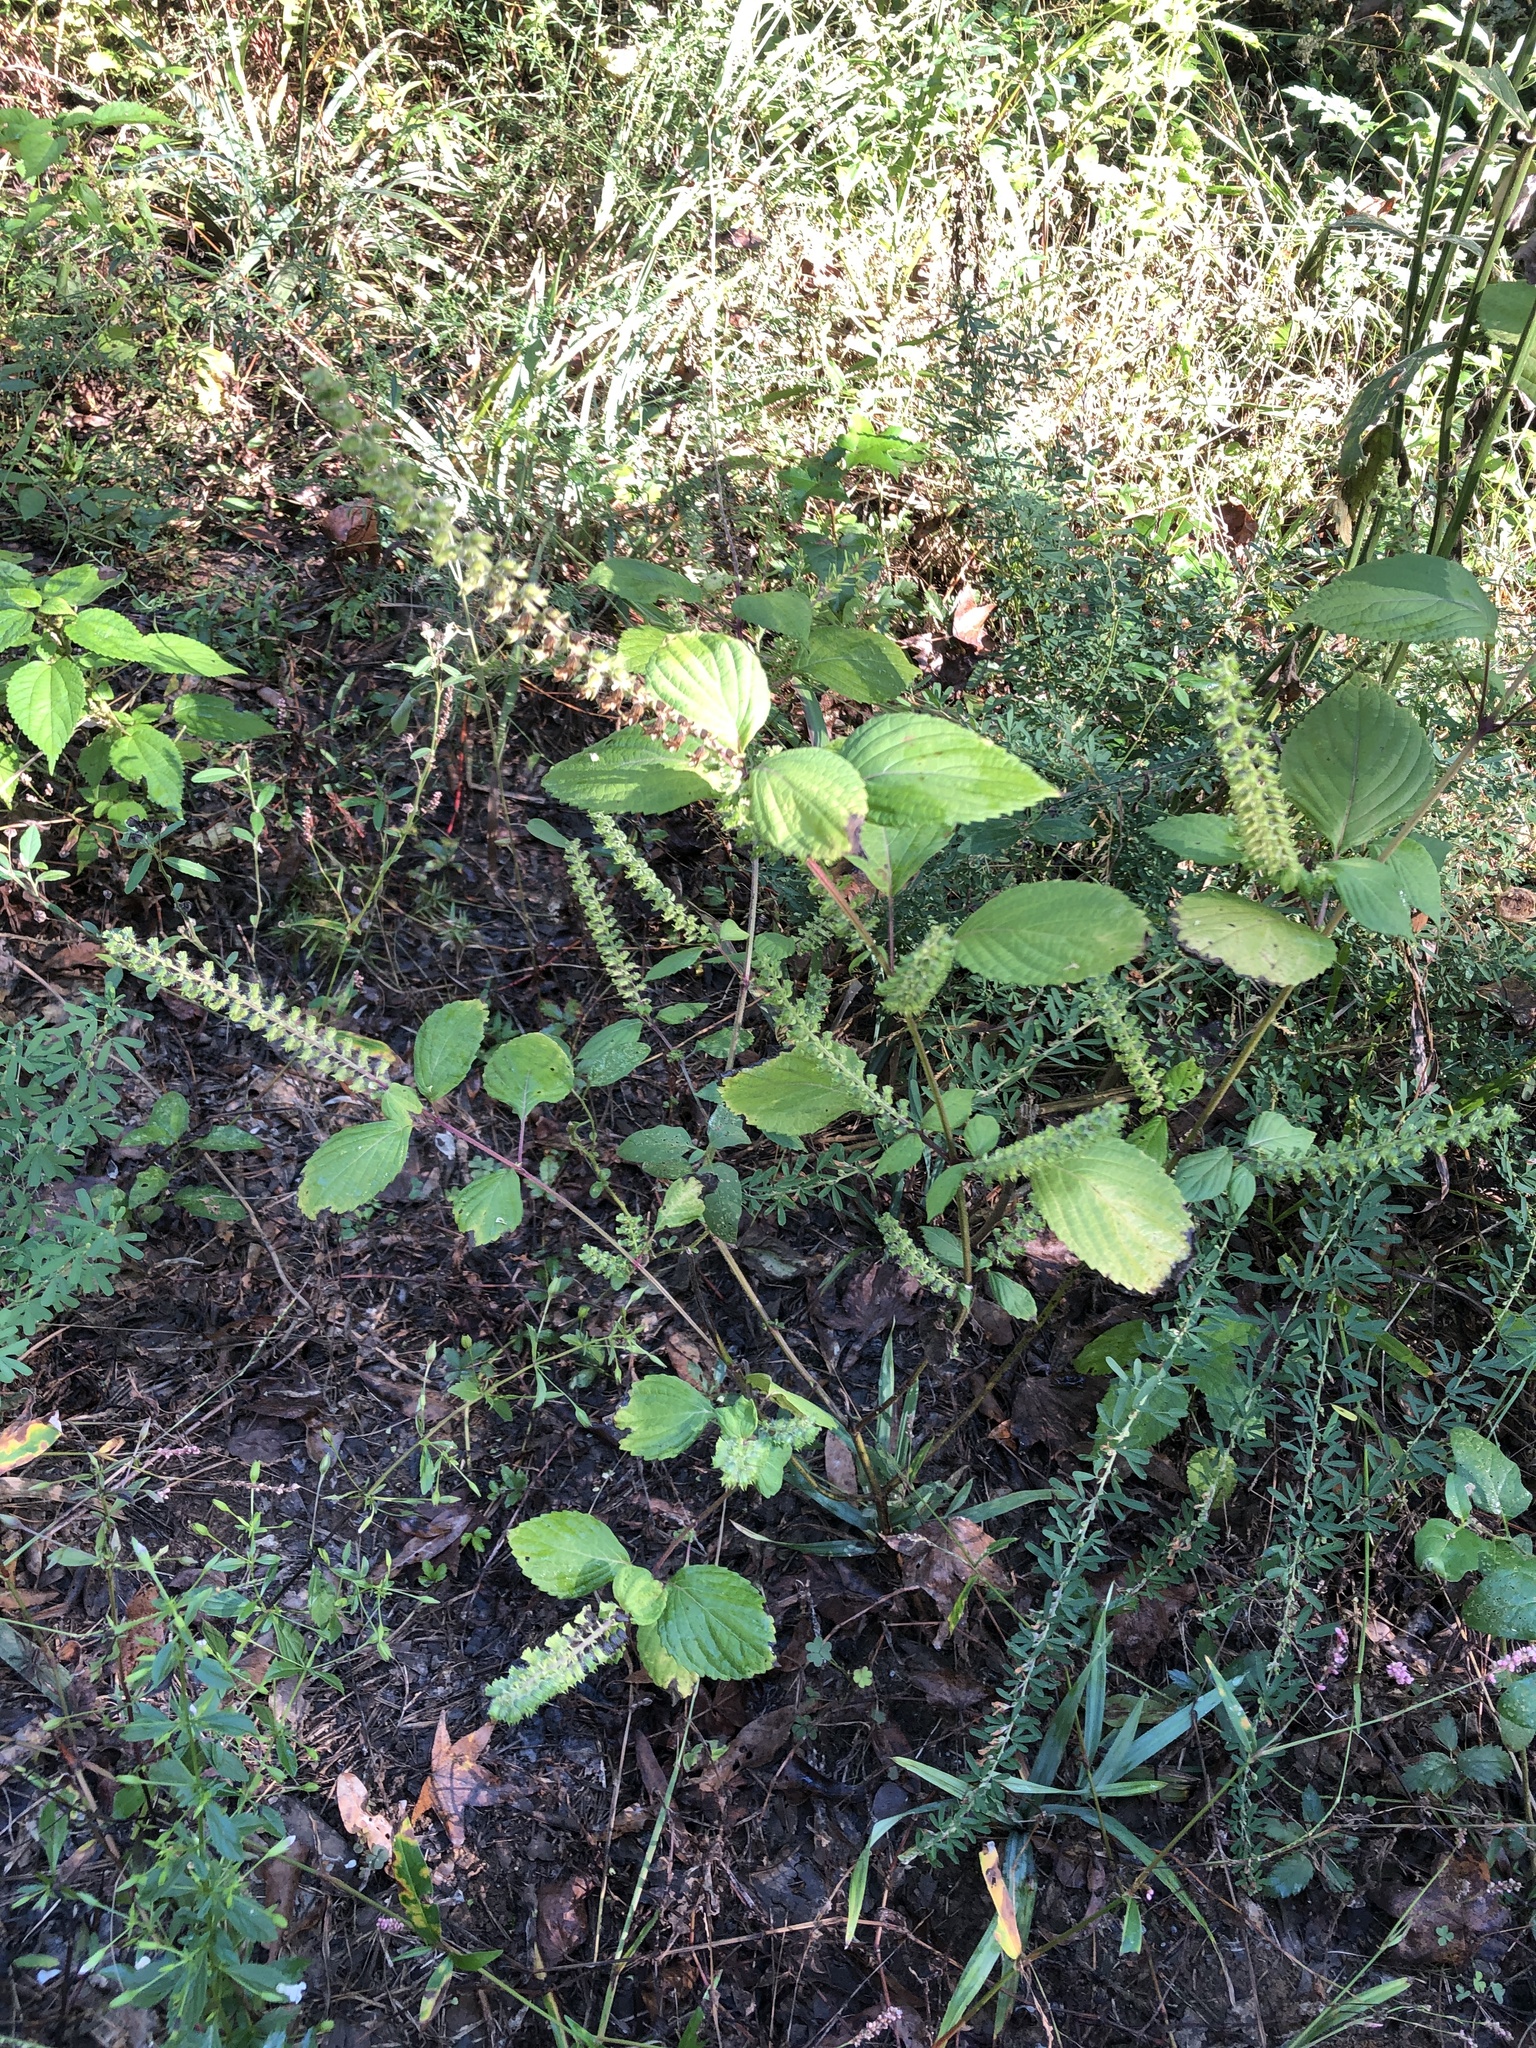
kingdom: Plantae
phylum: Tracheophyta
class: Magnoliopsida
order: Lamiales
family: Lamiaceae
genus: Perilla
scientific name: Perilla frutescens
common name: Perilla
